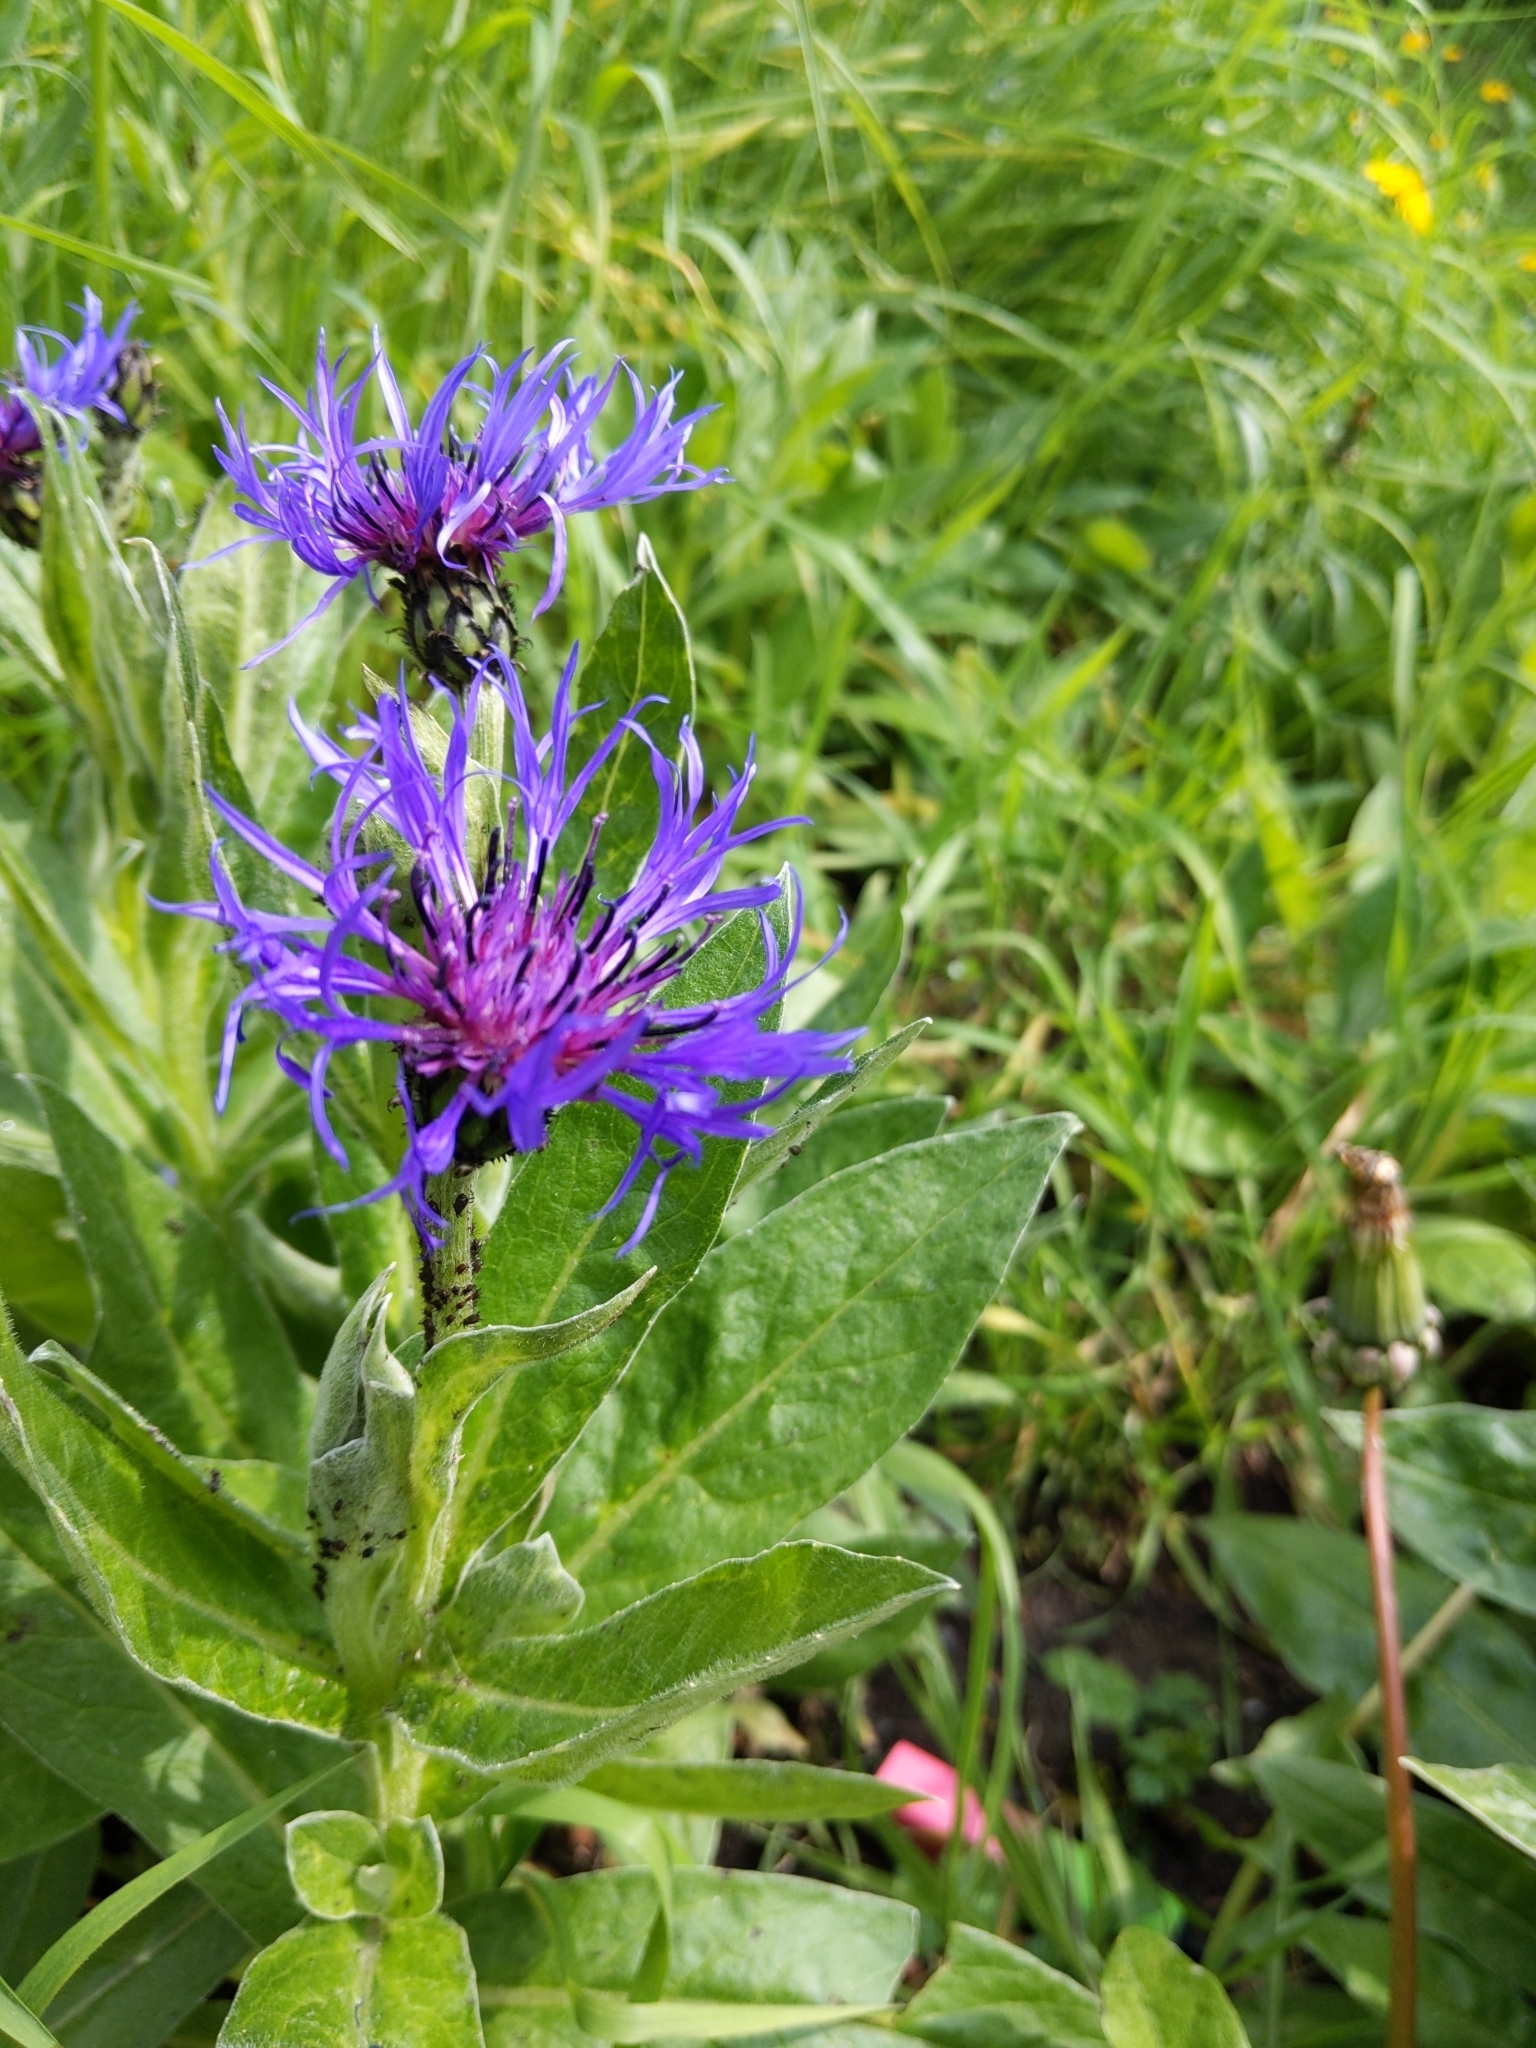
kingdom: Plantae
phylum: Tracheophyta
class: Magnoliopsida
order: Asterales
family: Asteraceae
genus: Centaurea
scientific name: Centaurea montana
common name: Perennial cornflower
